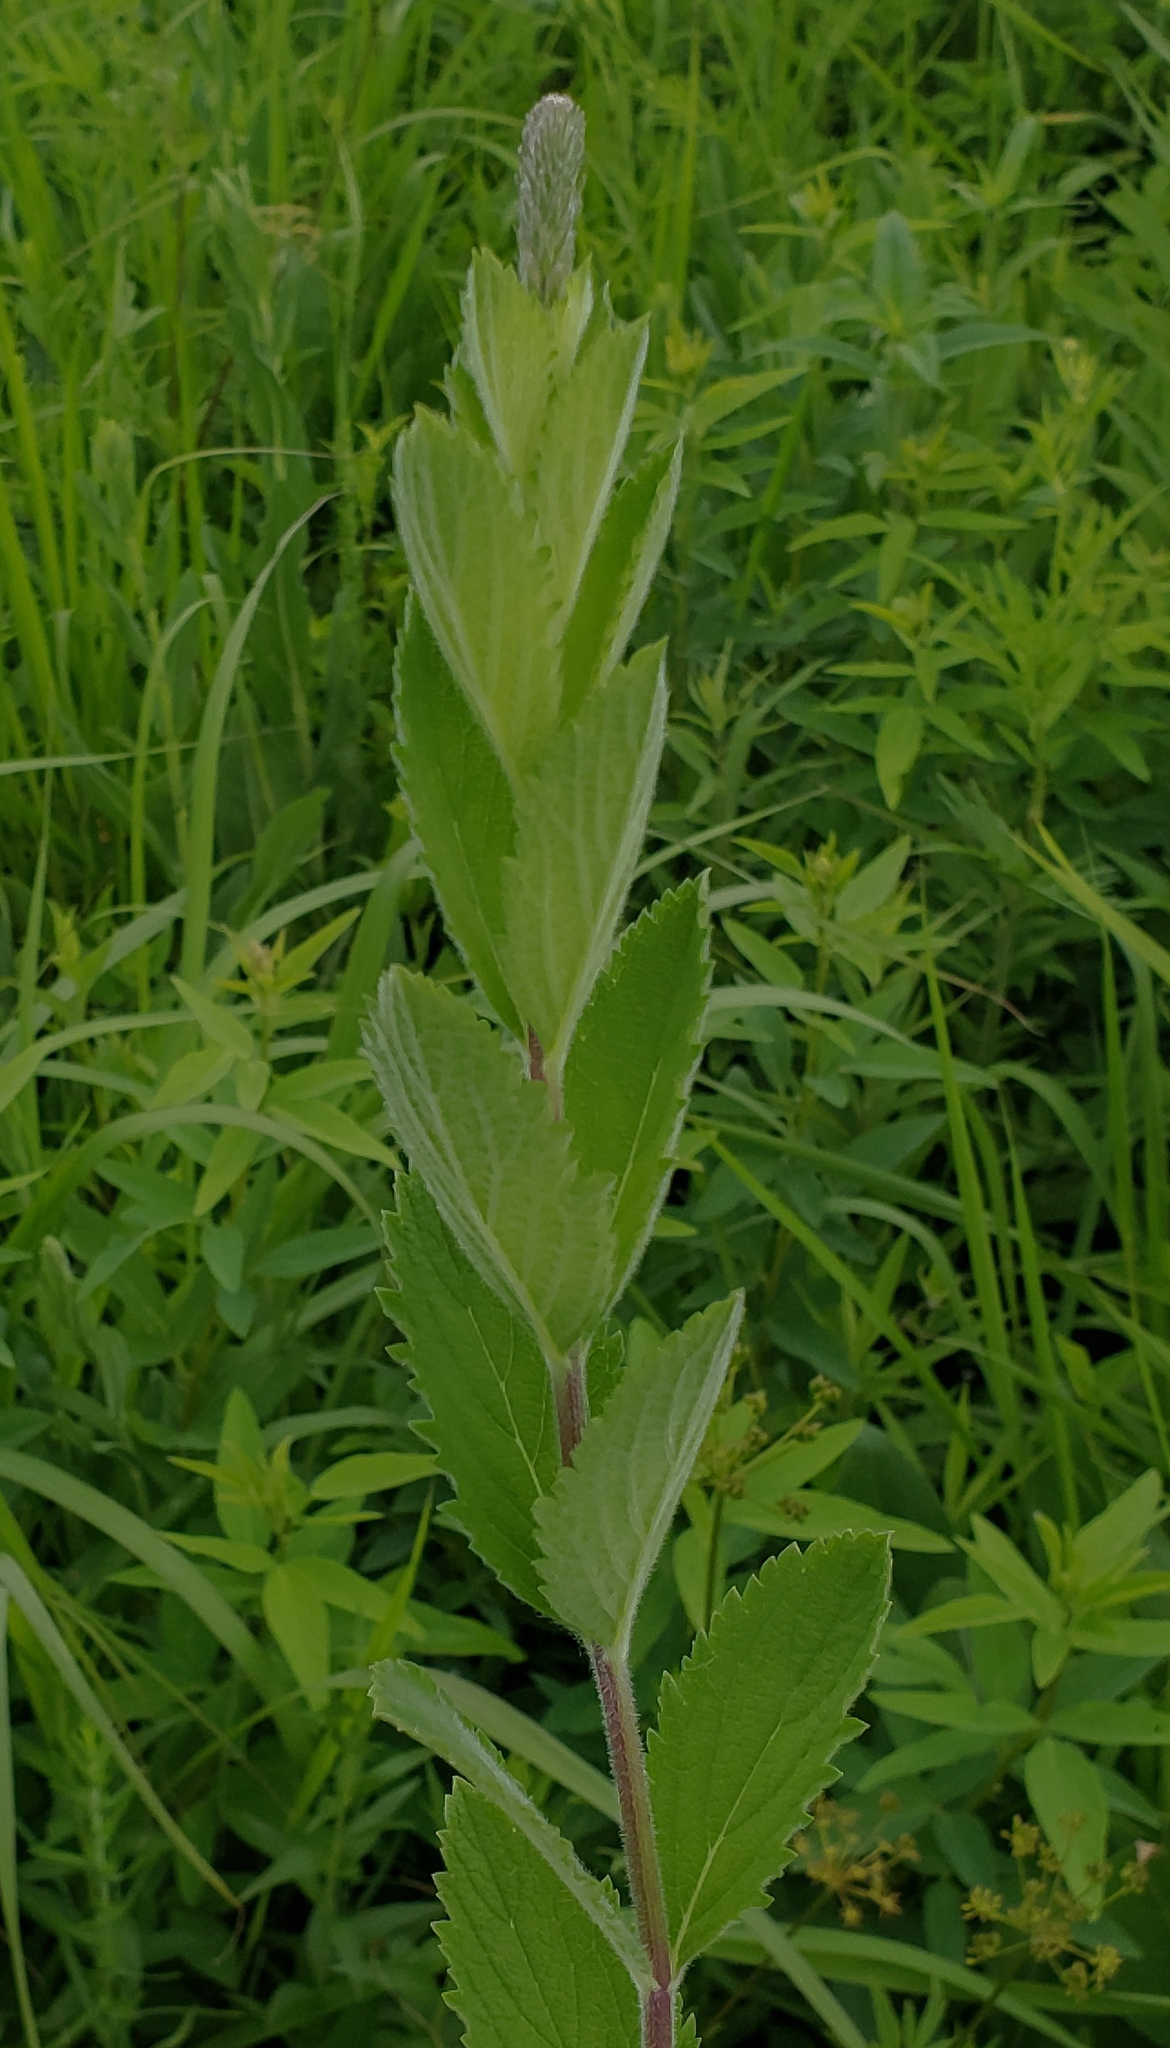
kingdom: Plantae
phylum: Tracheophyta
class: Magnoliopsida
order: Lamiales
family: Verbenaceae
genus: Verbena
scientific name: Verbena stricta
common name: Hoary vervain
